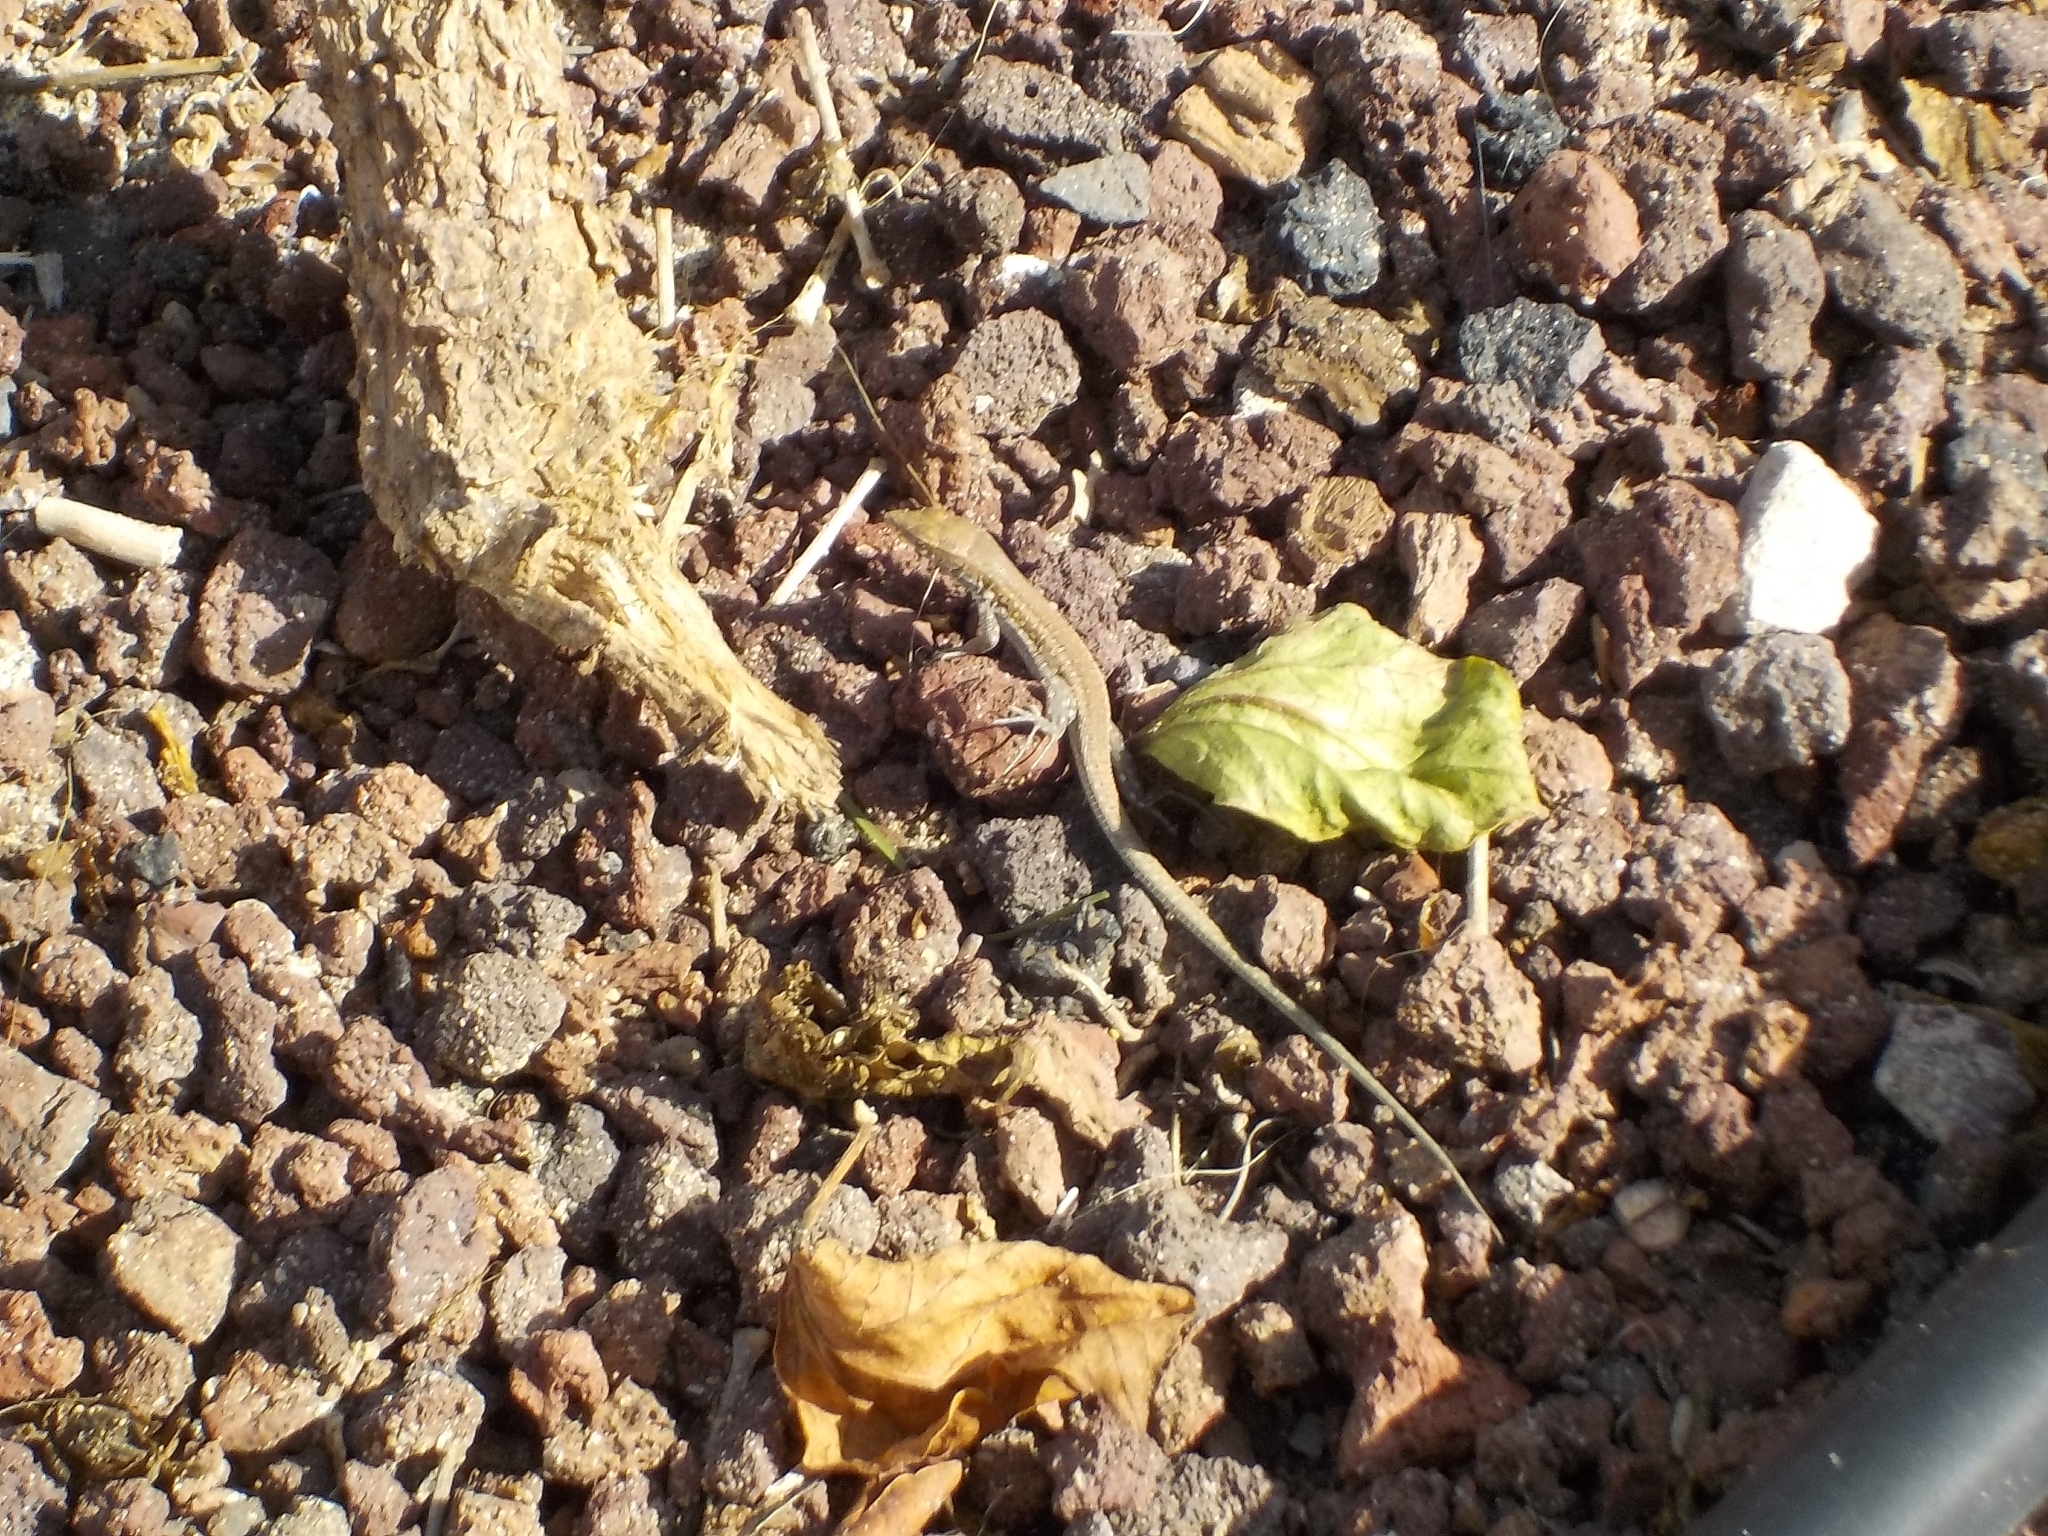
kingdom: Animalia
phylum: Chordata
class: Squamata
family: Lacertidae
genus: Gallotia
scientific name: Gallotia atlantica
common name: Atlantic lizard
